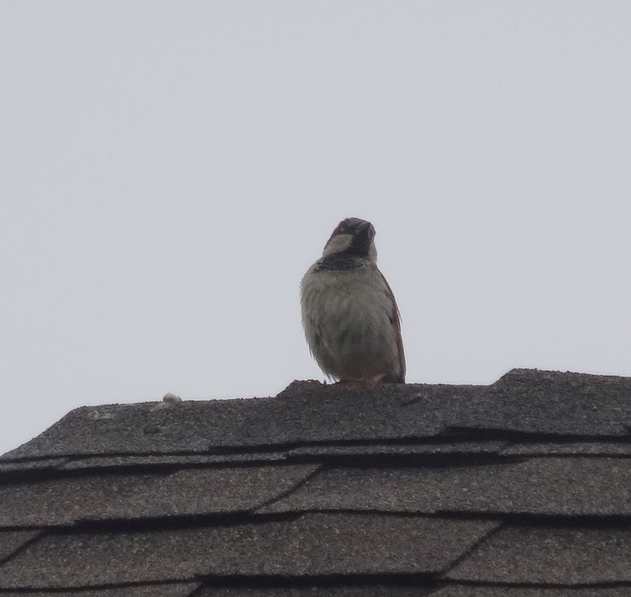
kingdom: Animalia
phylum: Chordata
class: Aves
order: Passeriformes
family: Passeridae
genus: Passer
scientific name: Passer domesticus
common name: House sparrow
